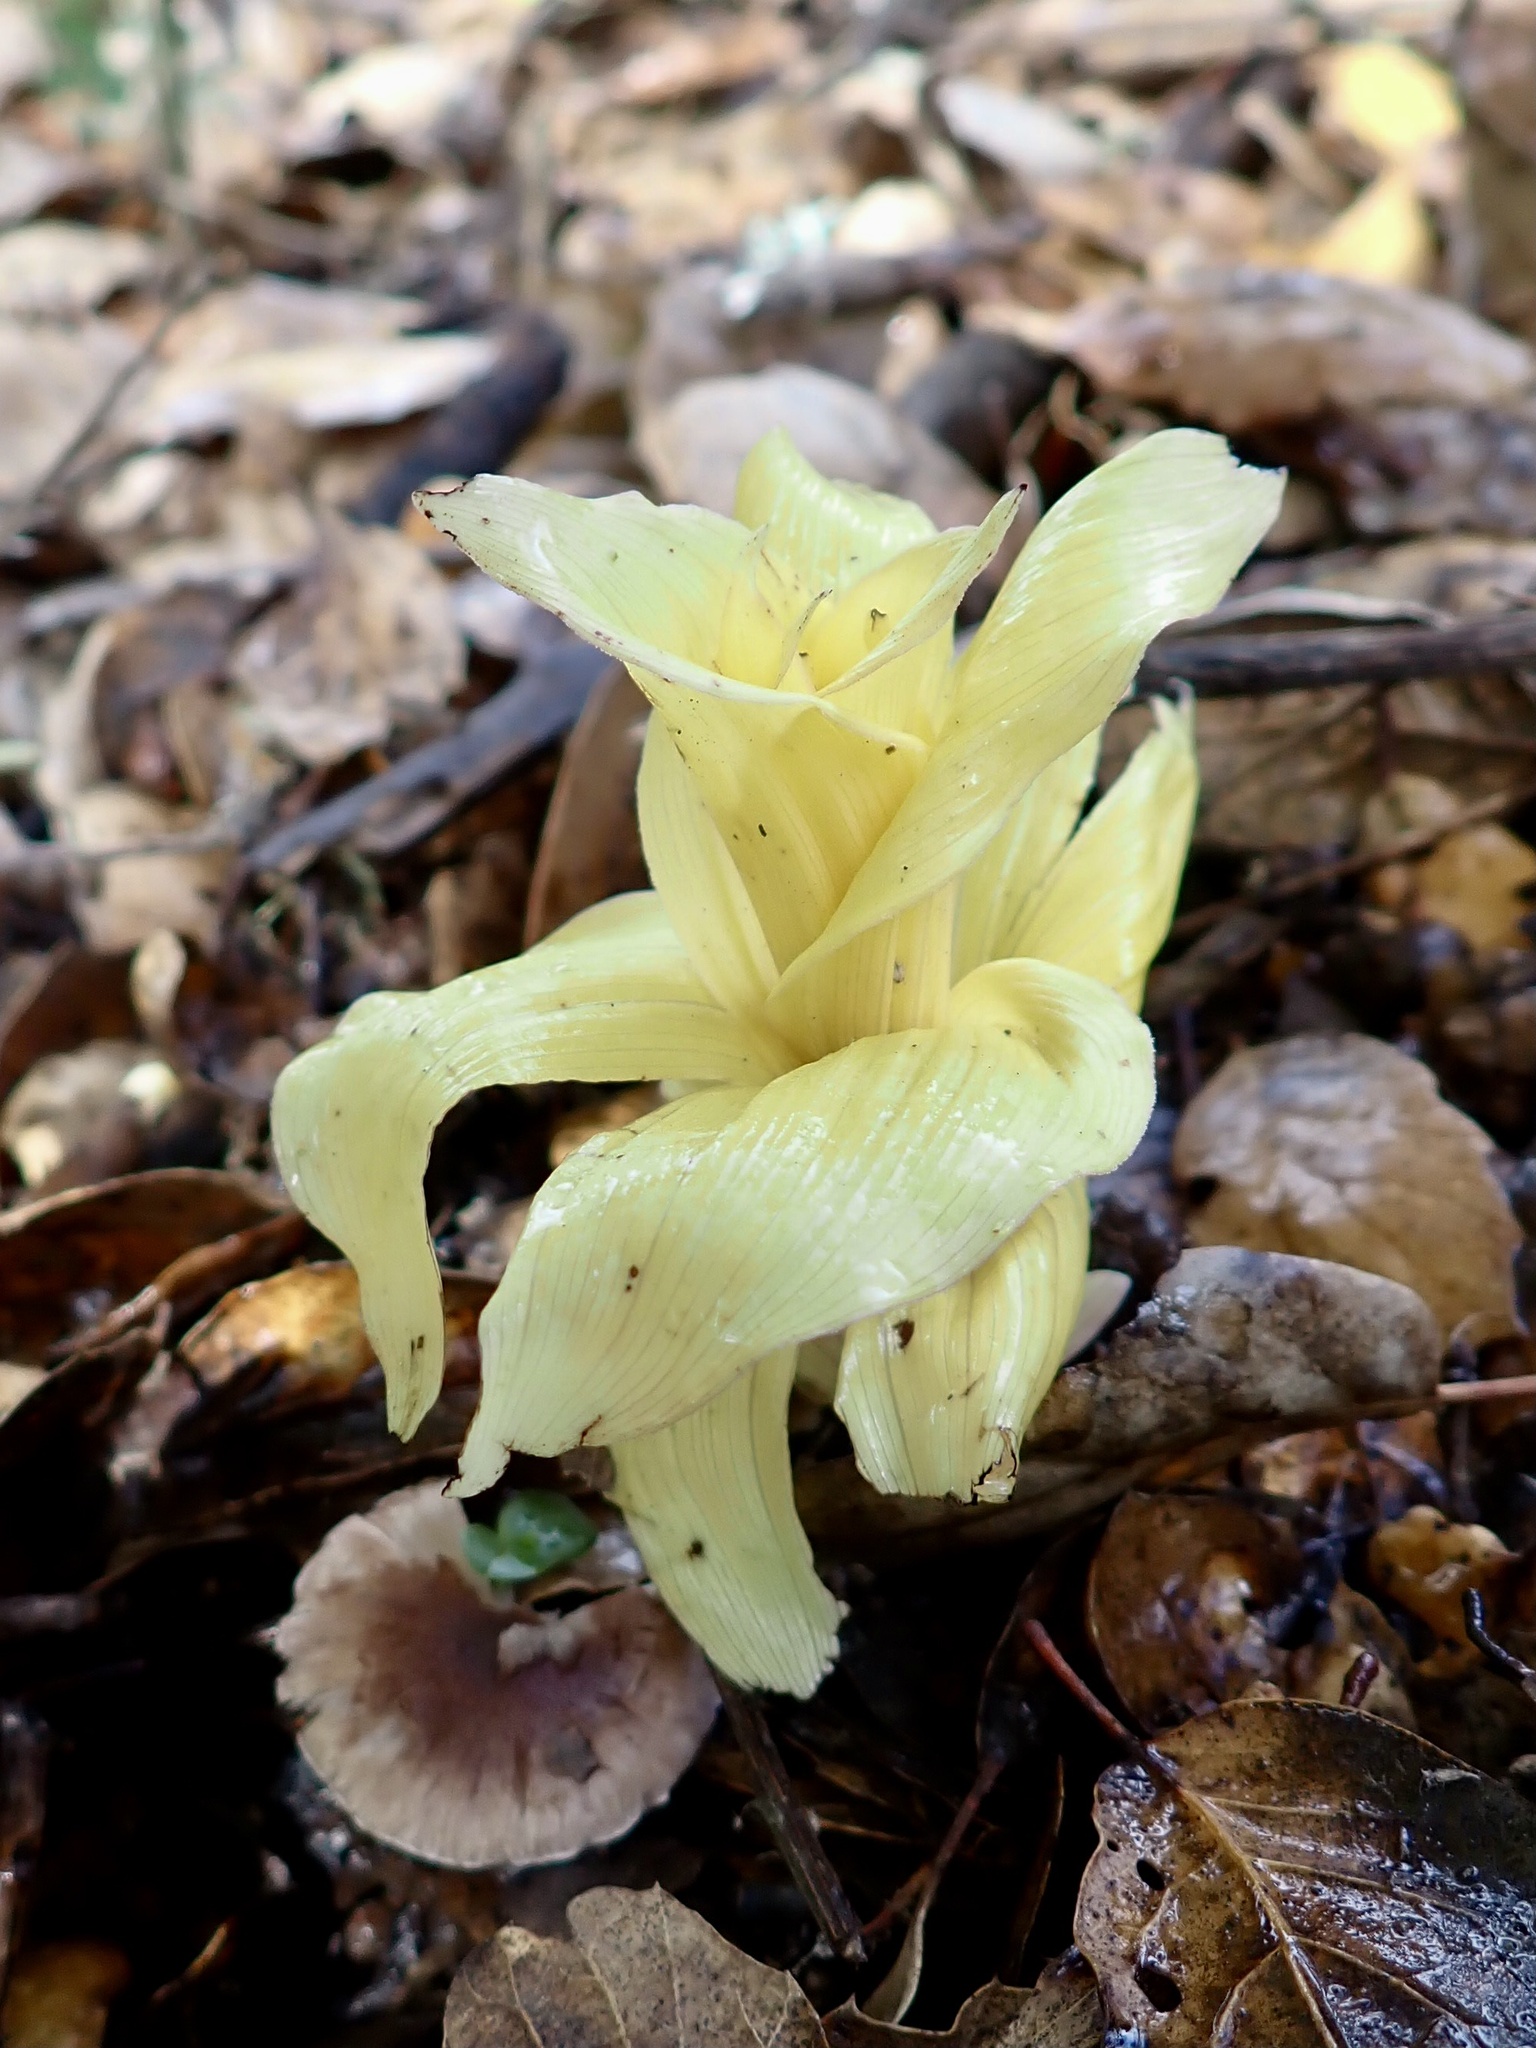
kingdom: Plantae
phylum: Tracheophyta
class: Liliopsida
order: Asparagales
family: Orchidaceae
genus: Epipactis
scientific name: Epipactis helleborine
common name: Broad-leaved helleborine
